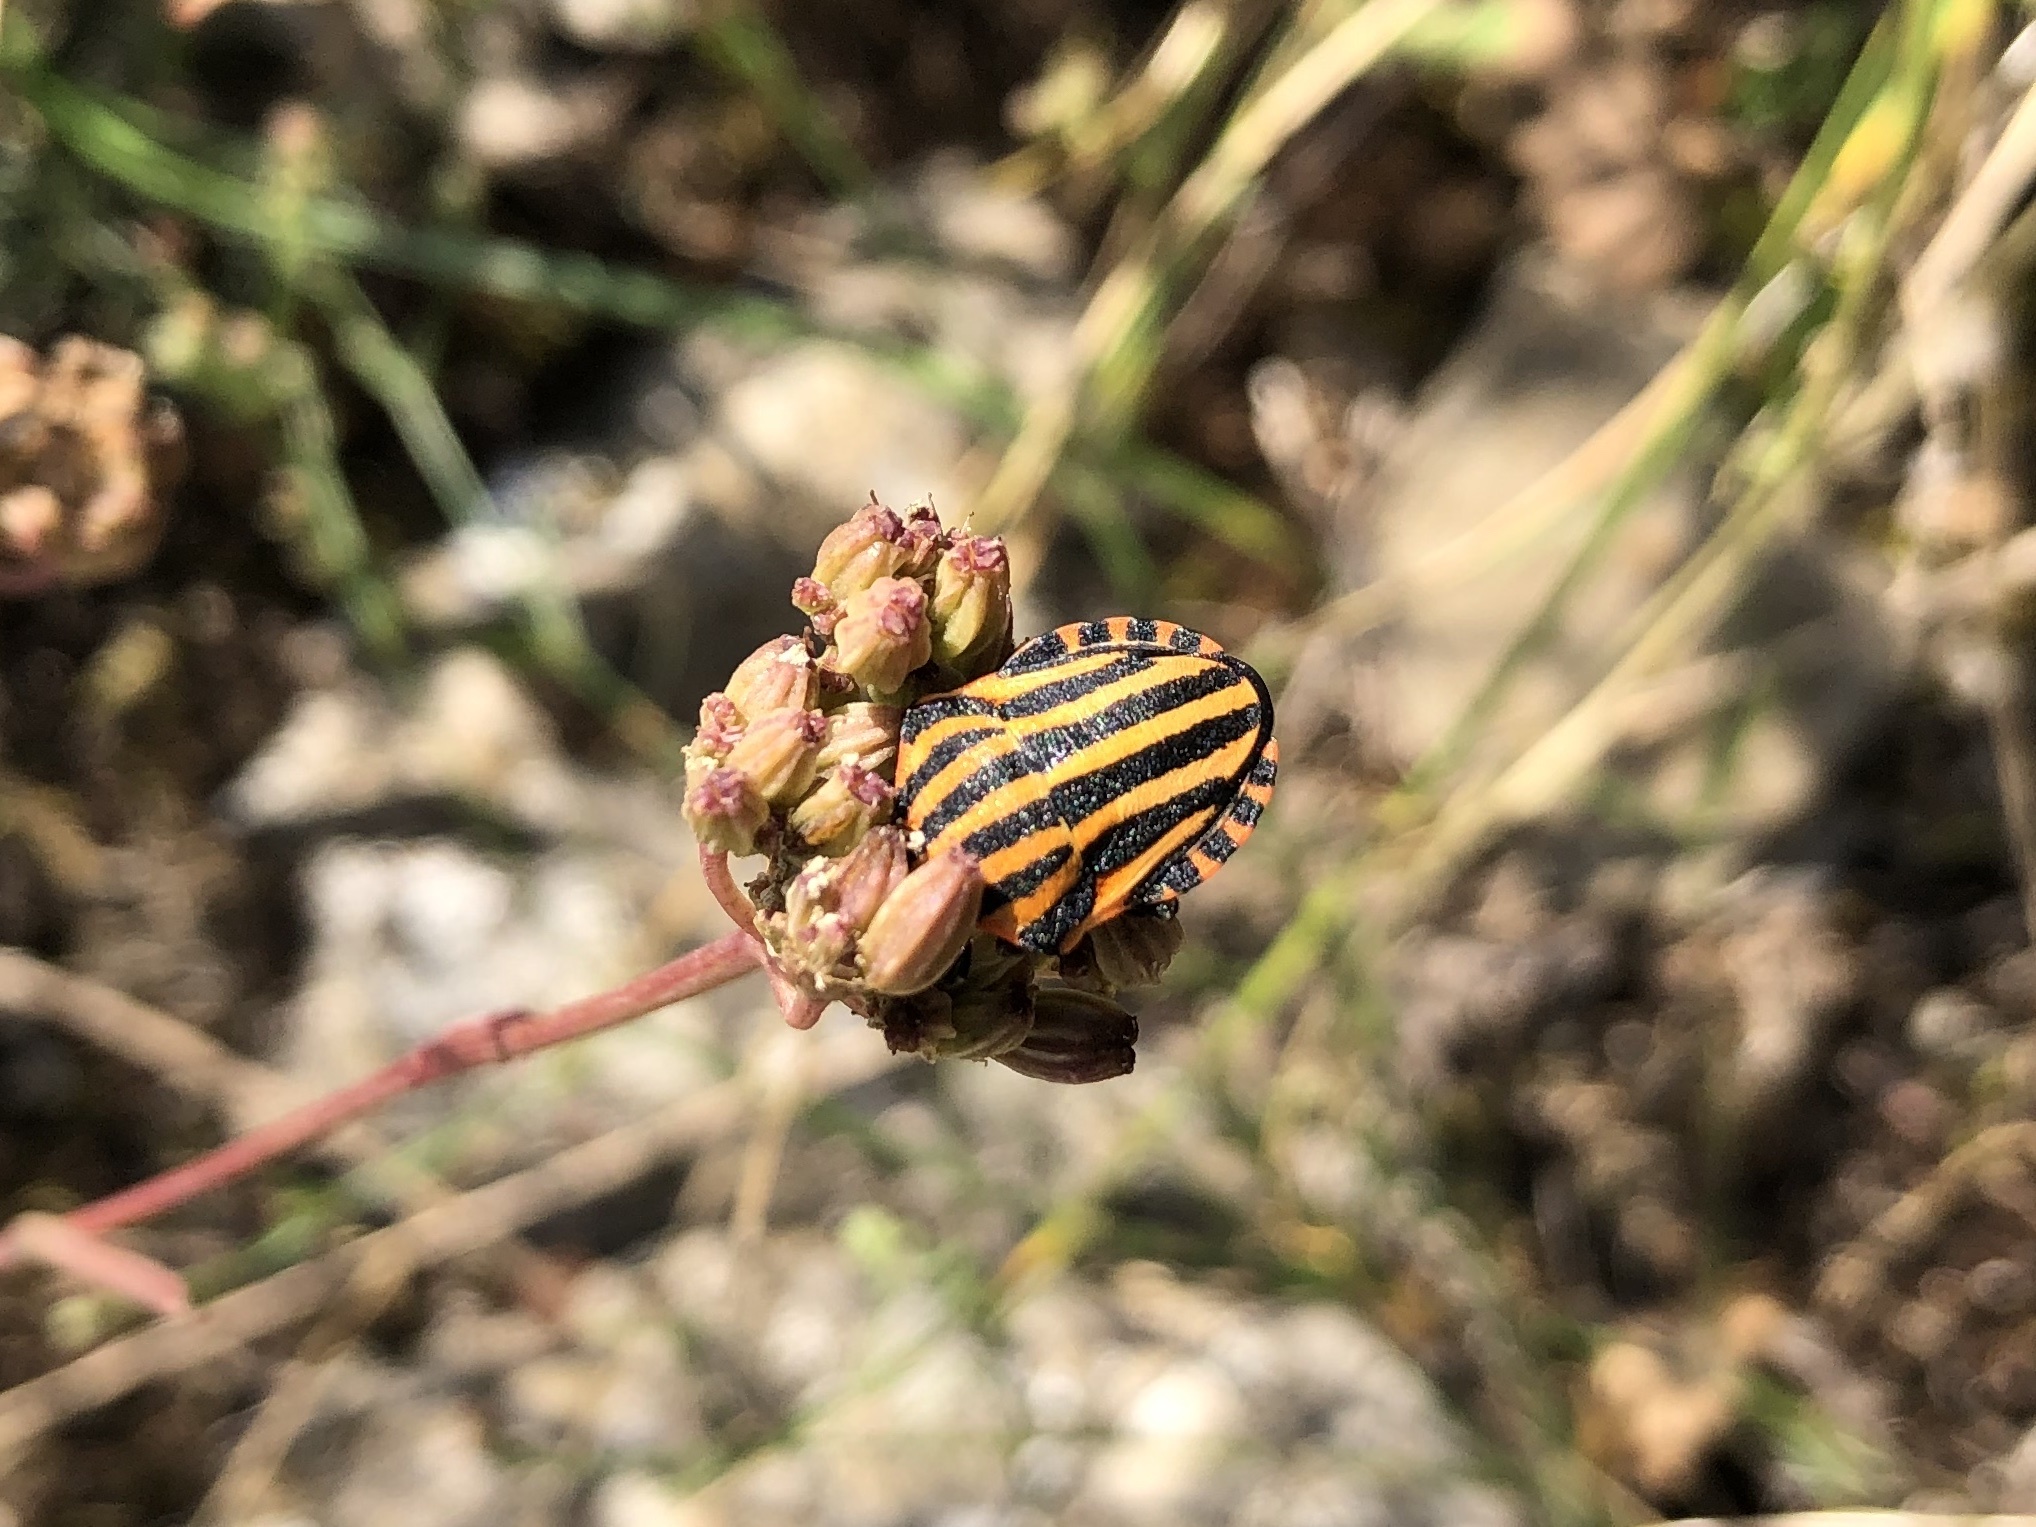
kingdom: Animalia
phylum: Arthropoda
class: Insecta
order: Hemiptera
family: Pentatomidae
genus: Graphosoma
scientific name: Graphosoma italicum
